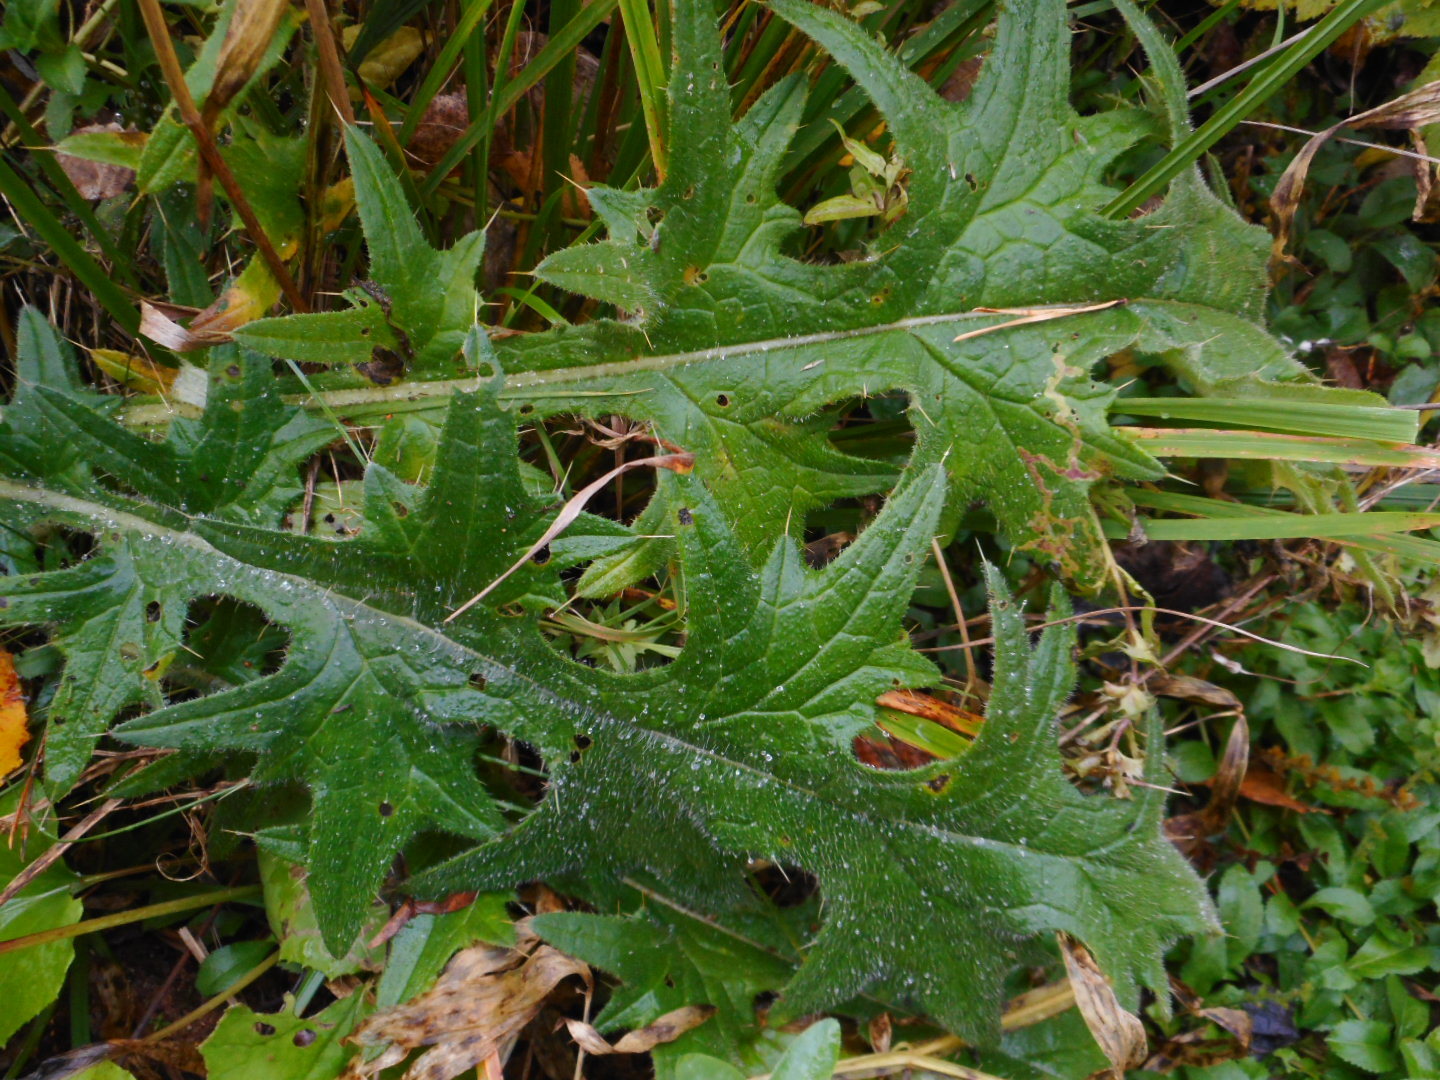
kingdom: Plantae
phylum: Tracheophyta
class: Magnoliopsida
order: Asterales
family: Asteraceae
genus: Cirsium
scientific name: Cirsium vulgare
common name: Bull thistle
